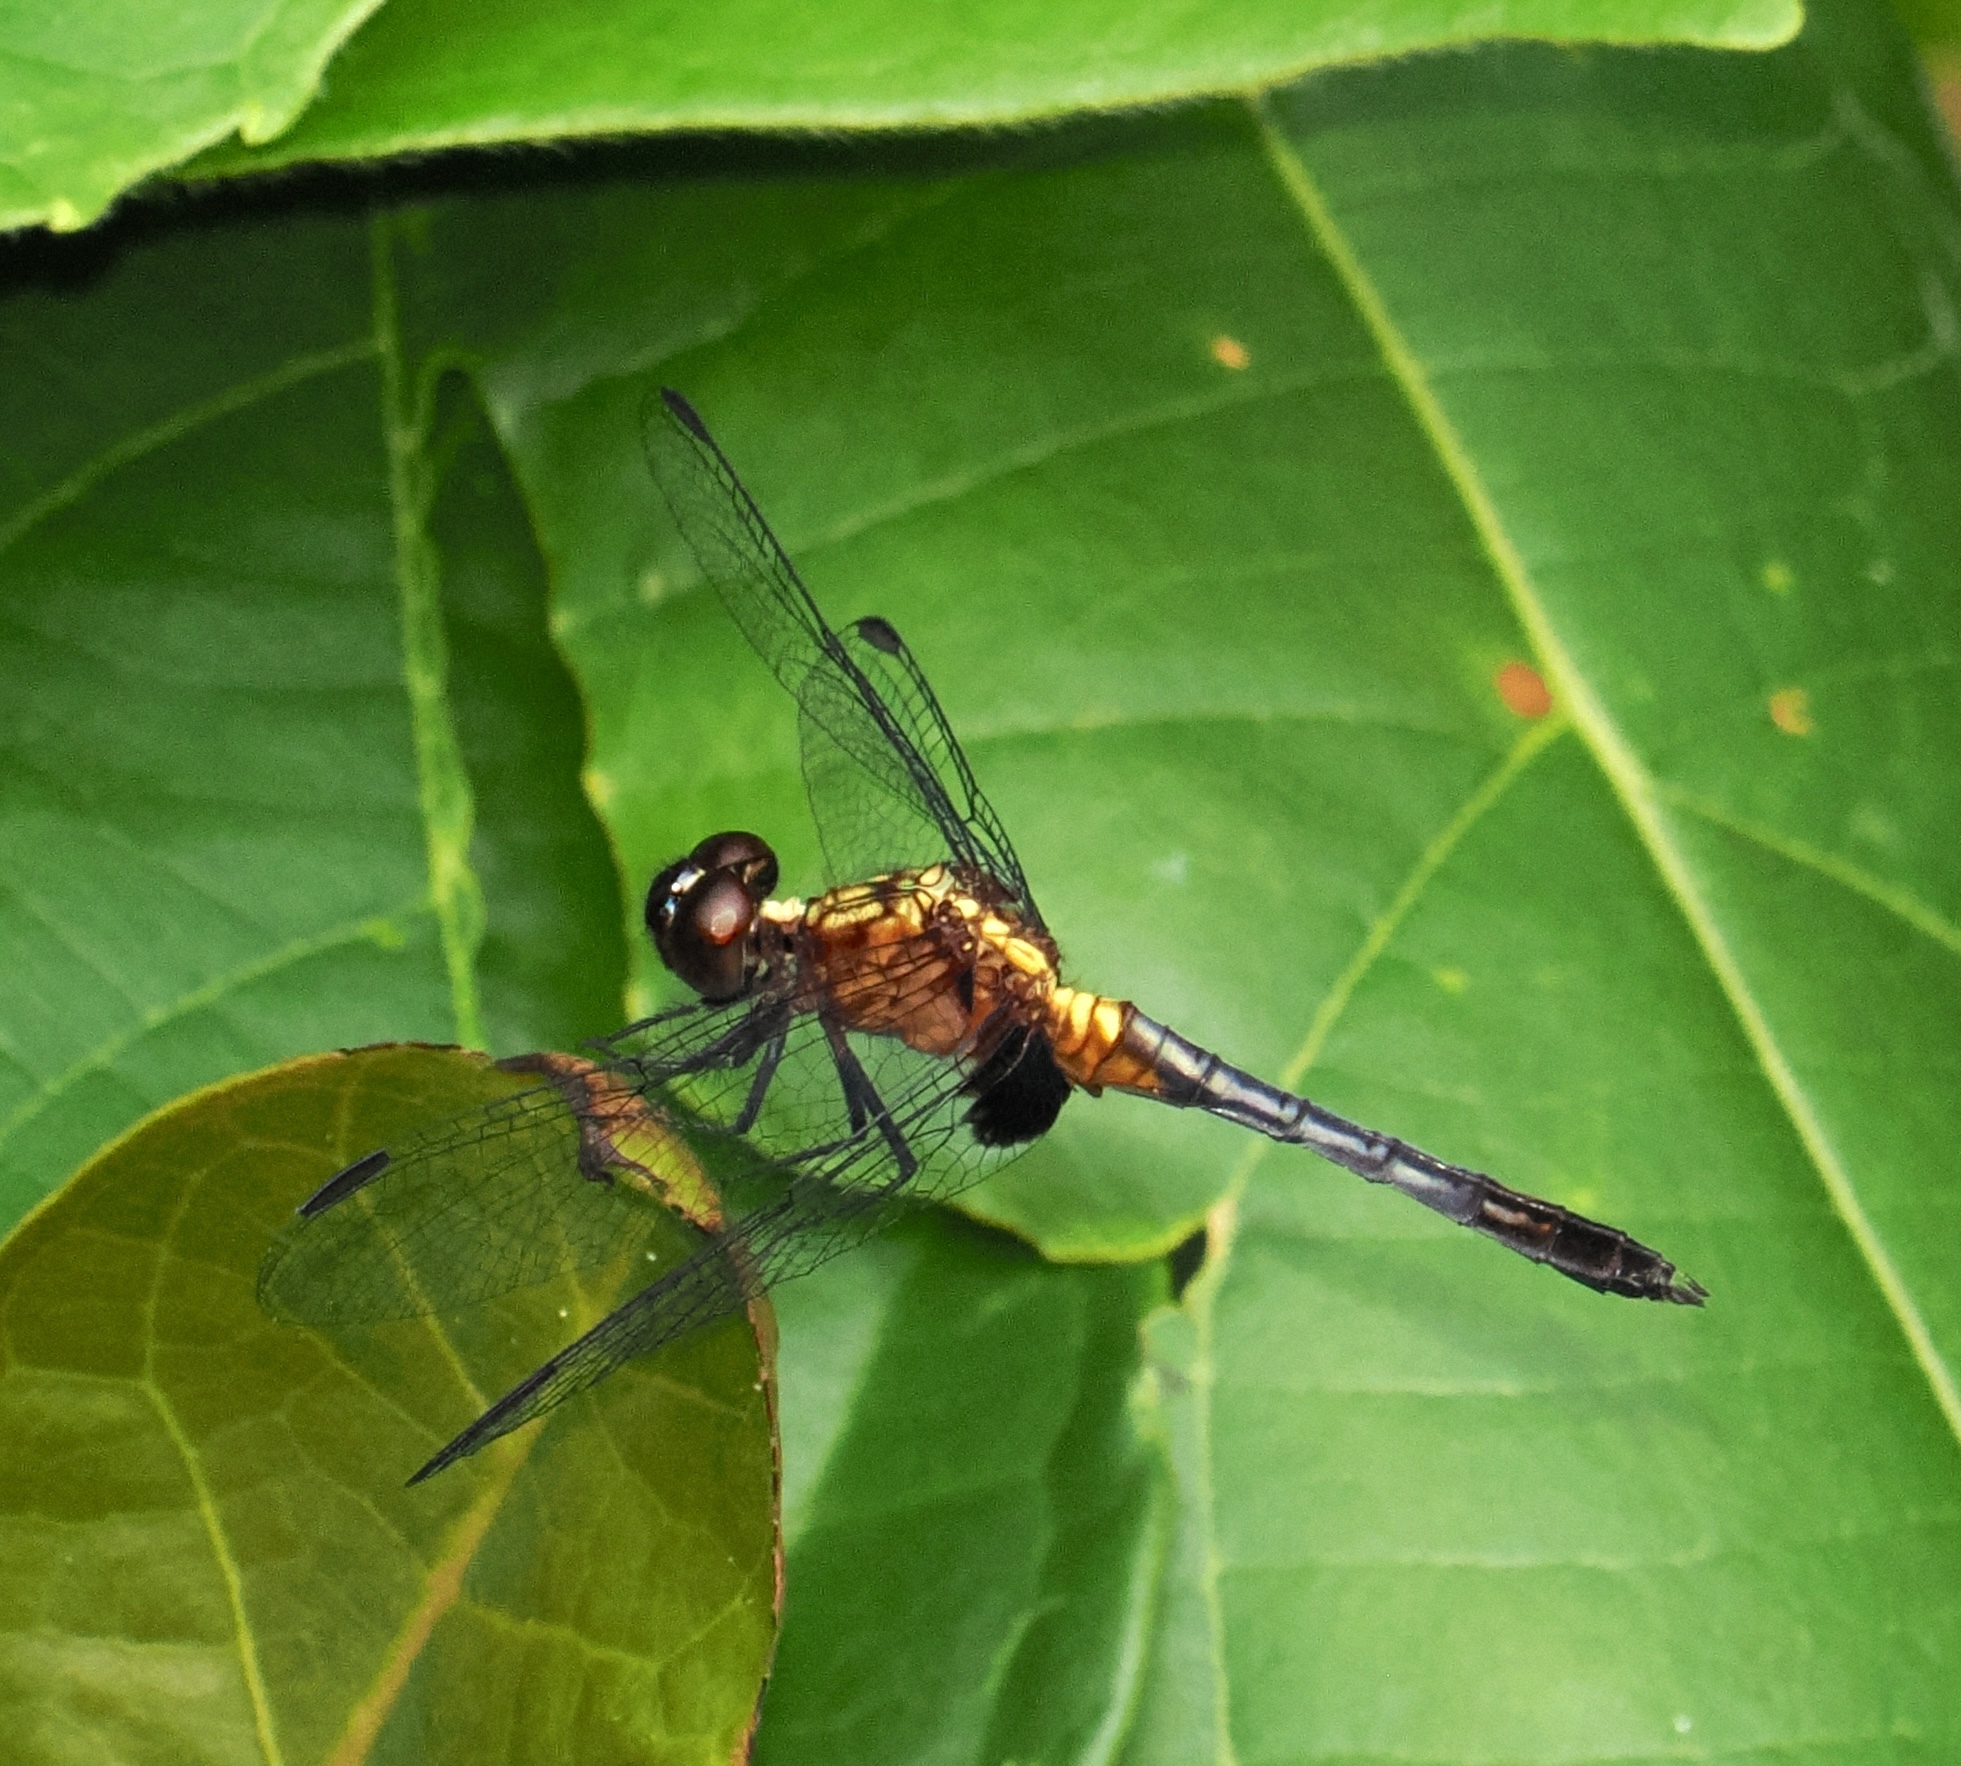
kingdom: Animalia
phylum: Arthropoda
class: Insecta
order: Odonata
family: Libellulidae
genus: Erythrodiplax
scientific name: Erythrodiplax avittata
